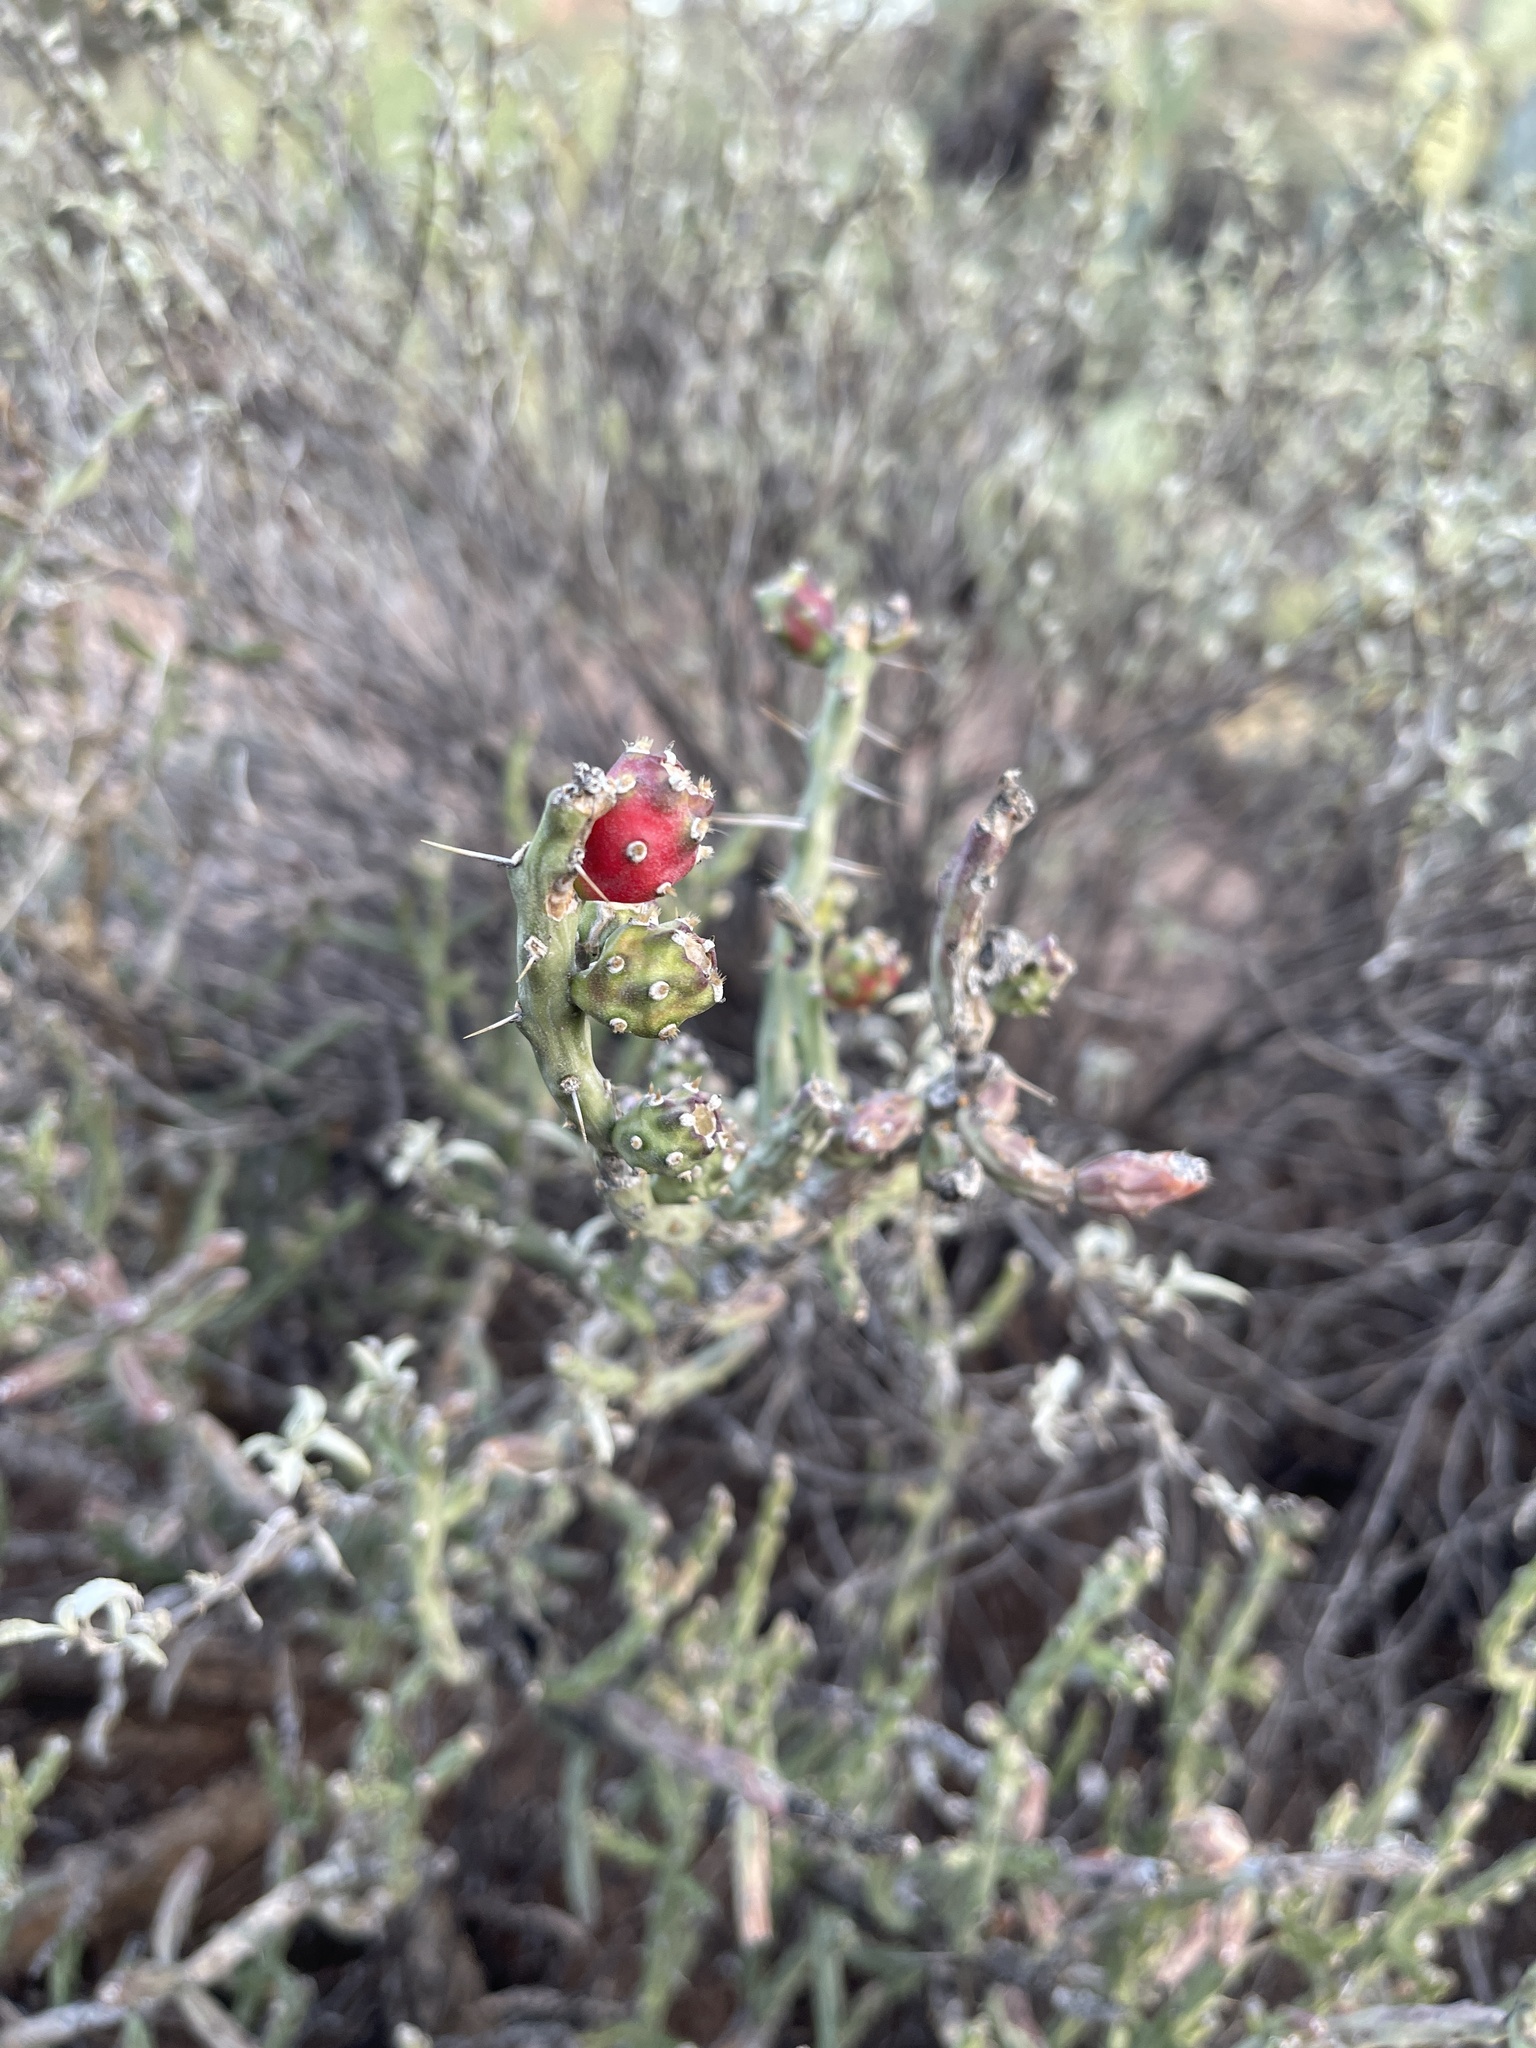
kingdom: Plantae
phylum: Tracheophyta
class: Magnoliopsida
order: Caryophyllales
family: Cactaceae
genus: Cylindropuntia
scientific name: Cylindropuntia leptocaulis
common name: Christmas cactus
